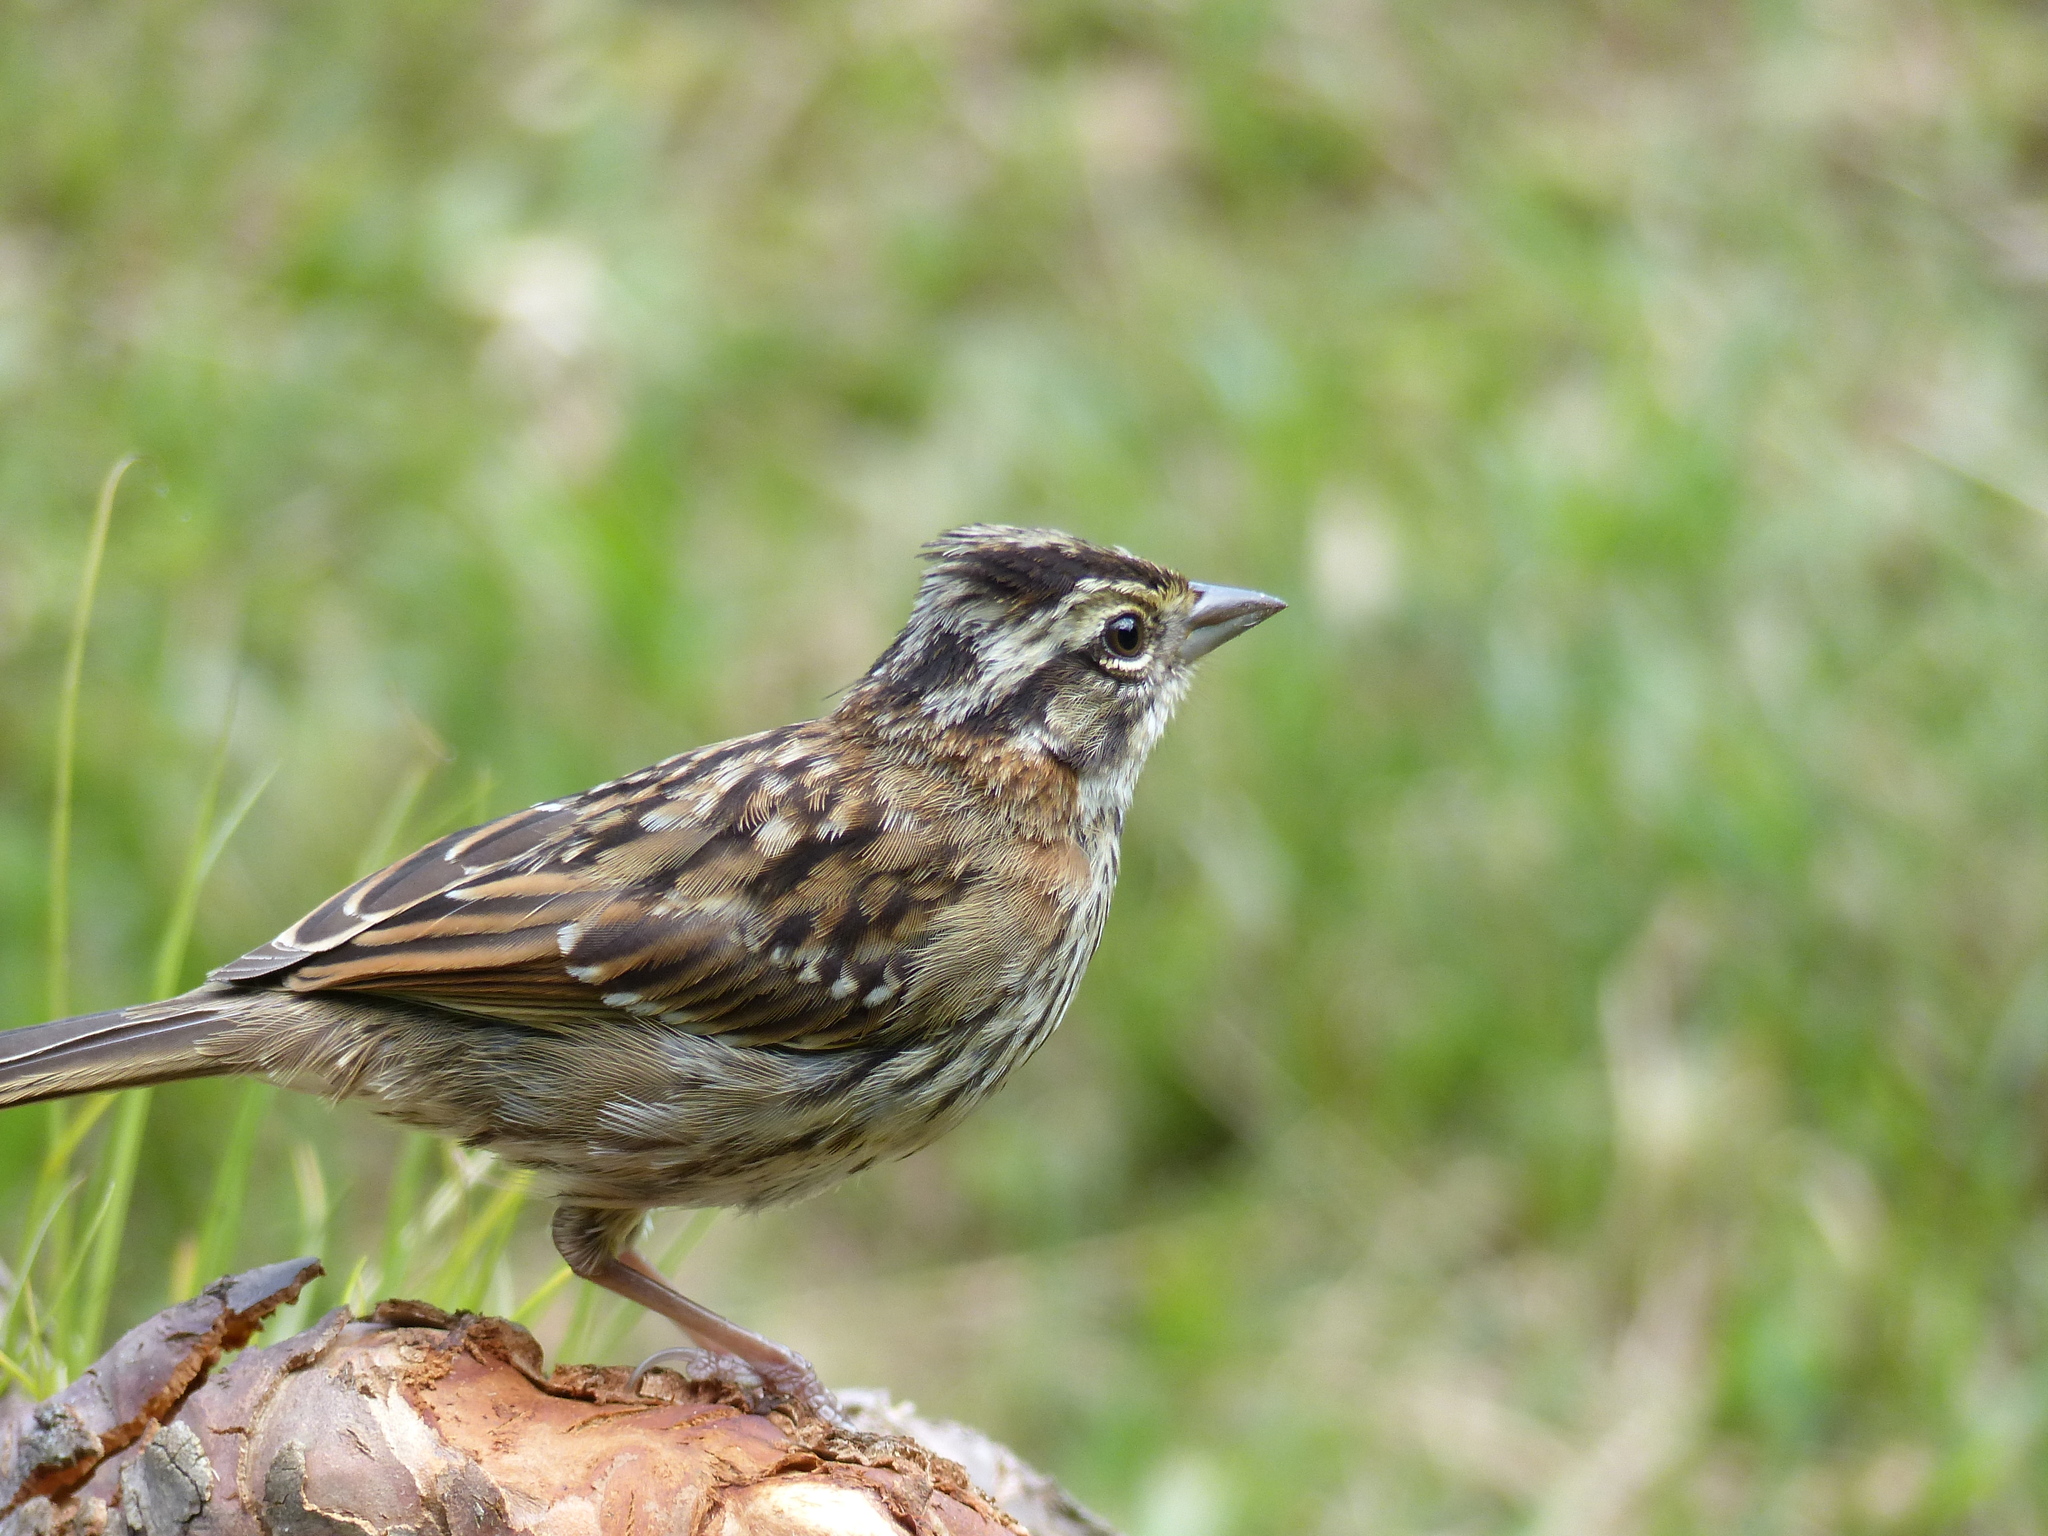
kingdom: Animalia
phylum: Chordata
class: Aves
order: Passeriformes
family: Passerellidae
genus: Zonotrichia
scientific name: Zonotrichia capensis
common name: Rufous-collared sparrow
